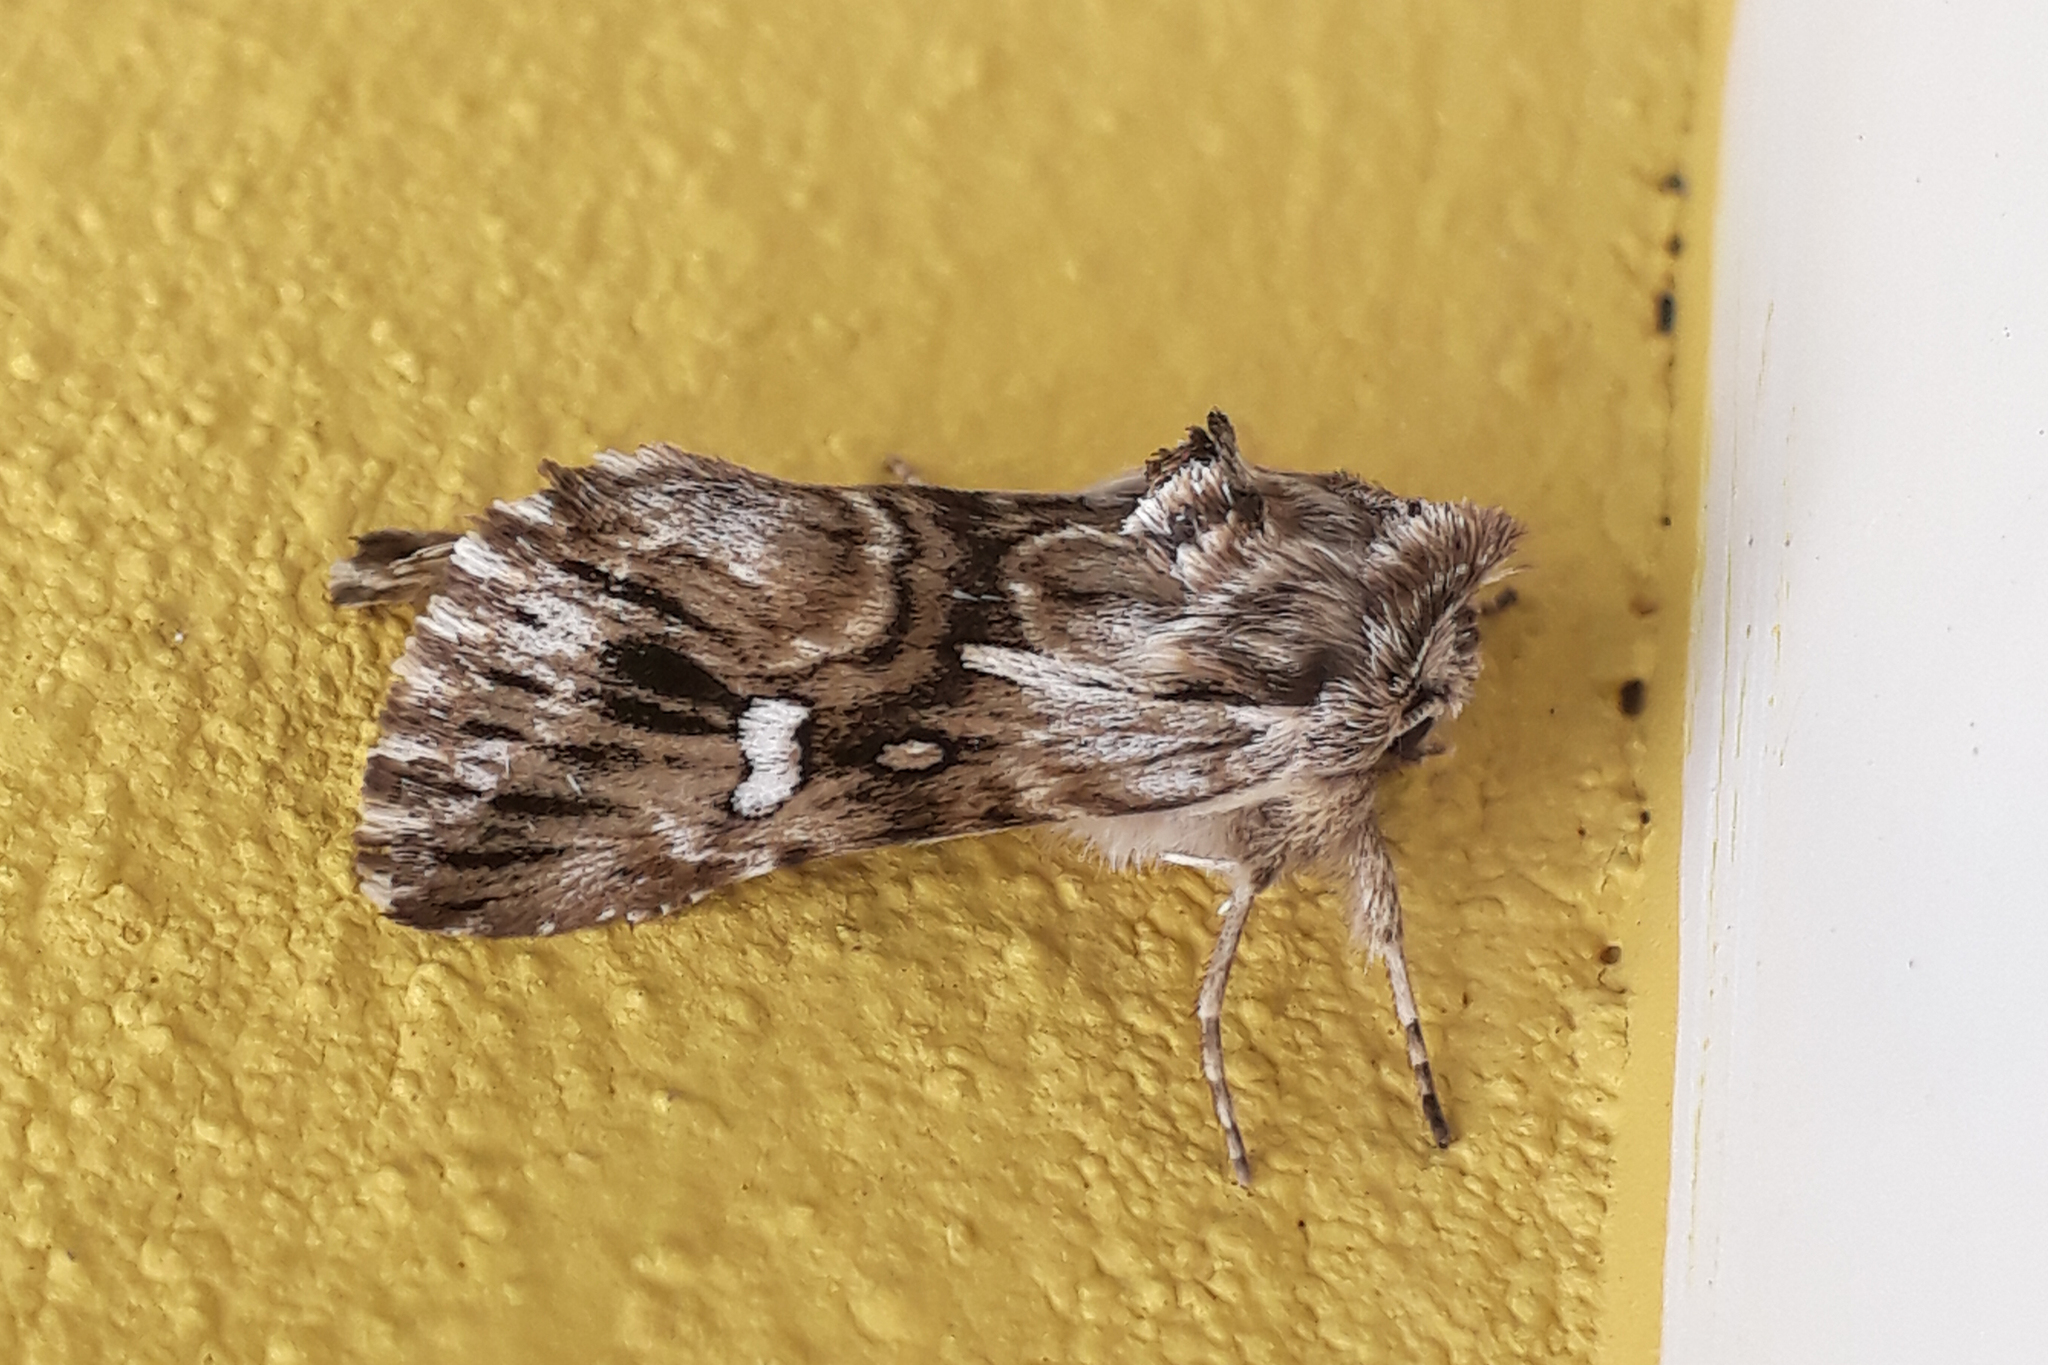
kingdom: Animalia
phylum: Arthropoda
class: Insecta
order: Lepidoptera
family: Noctuidae
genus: Calophasia
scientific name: Calophasia lunula
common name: Toadflax brocade
